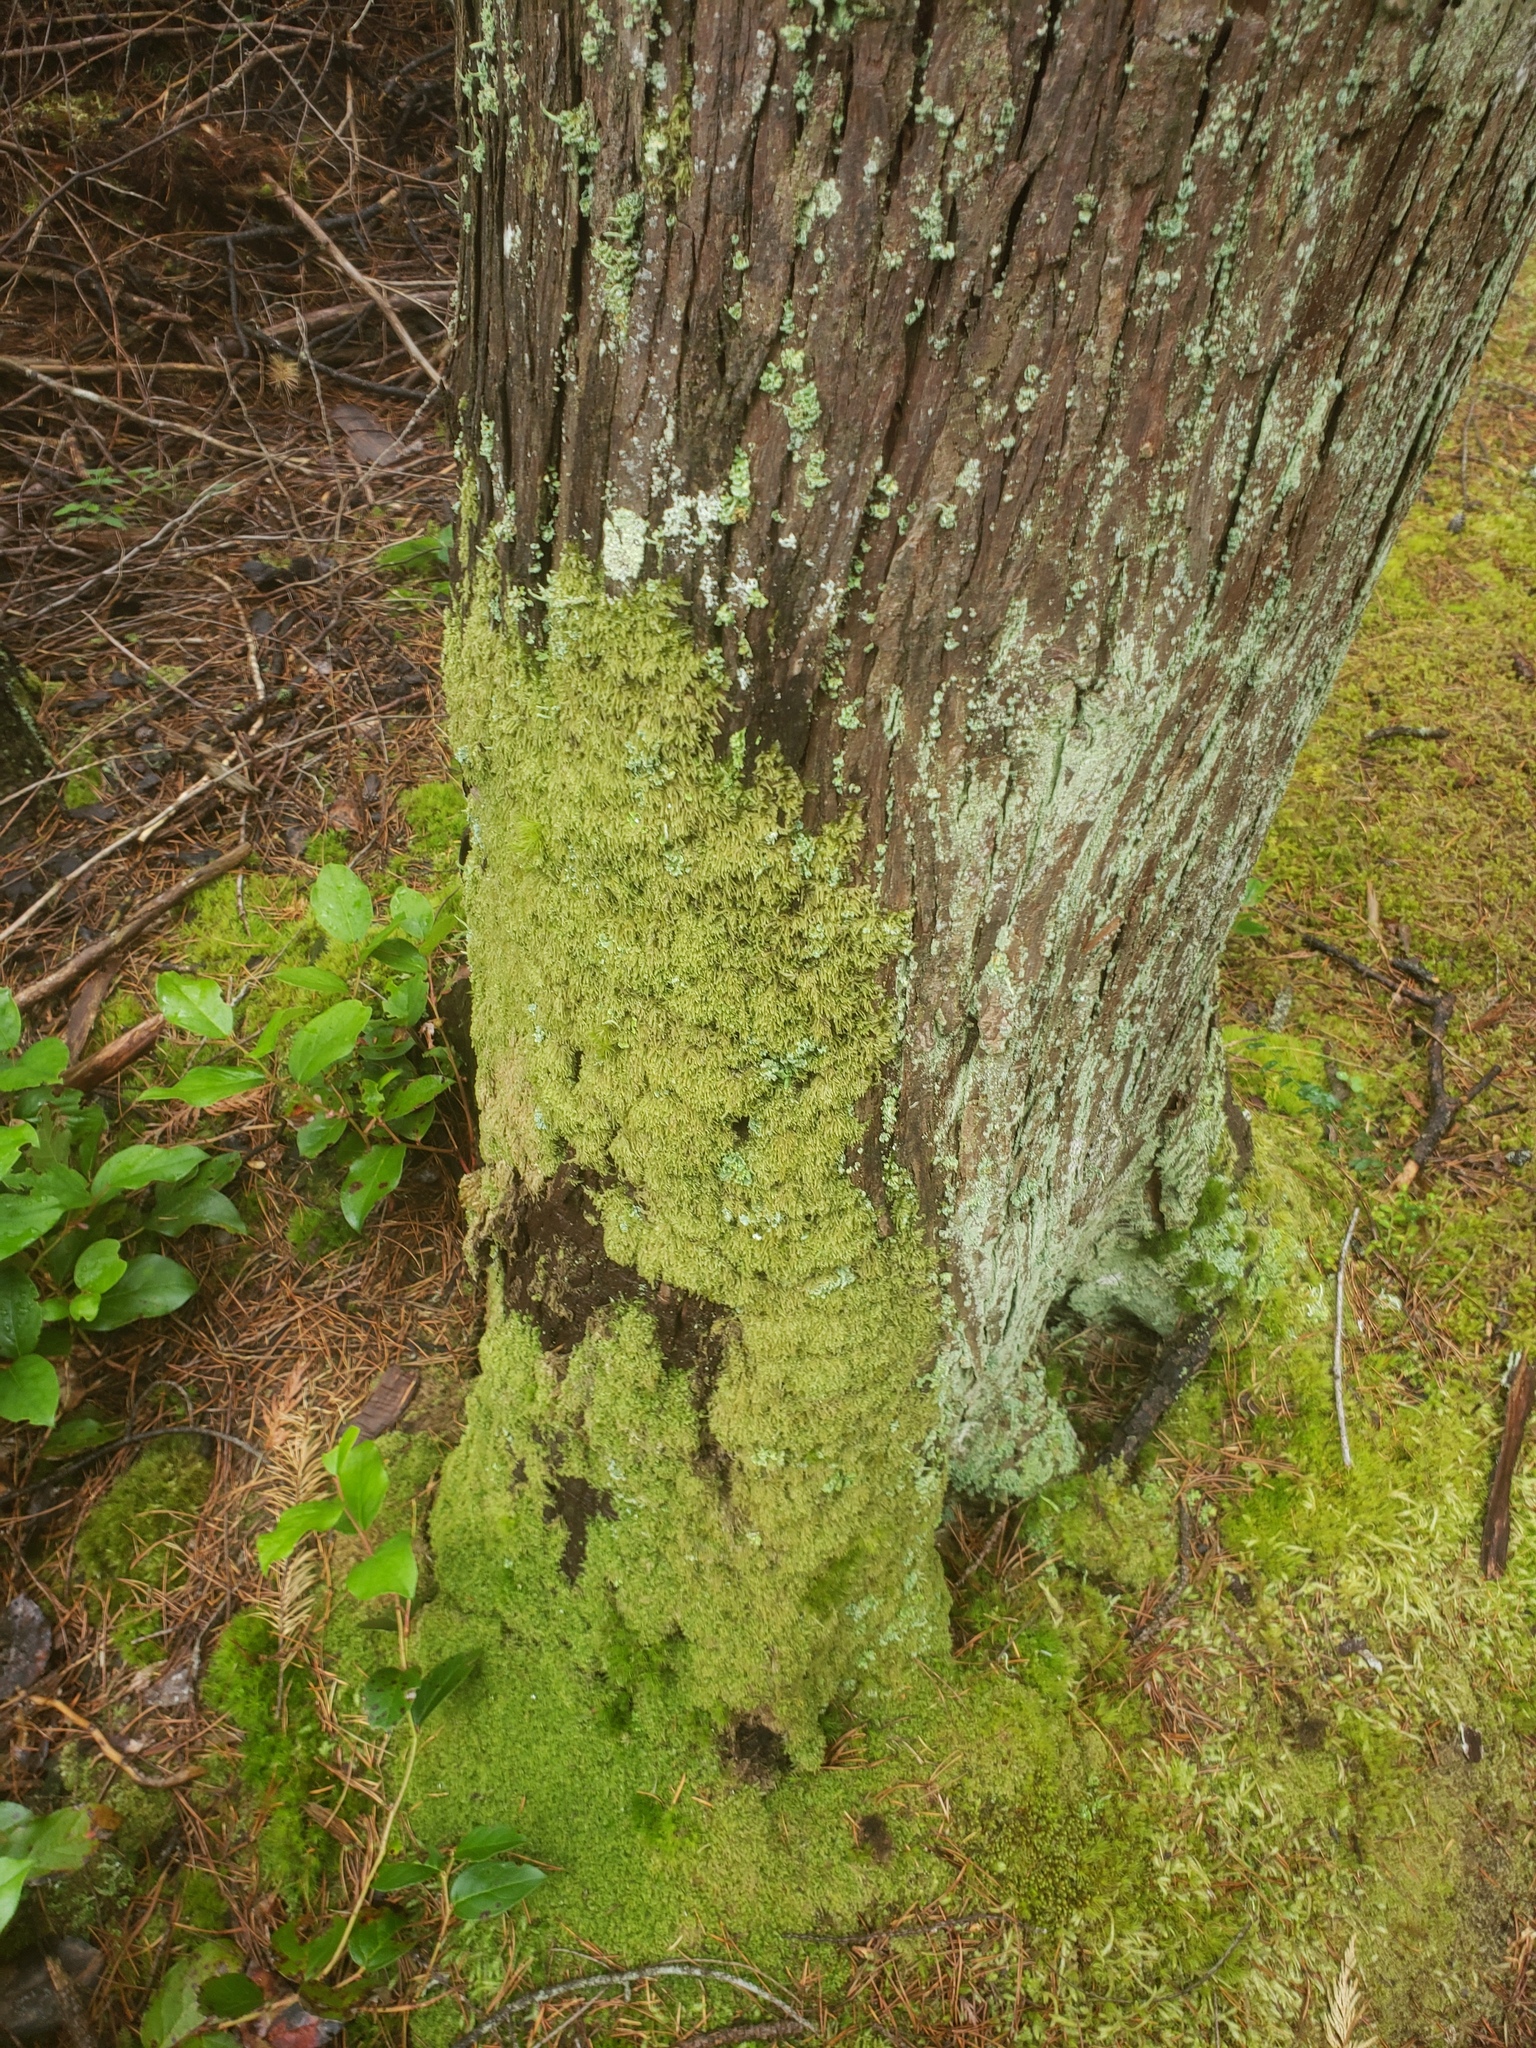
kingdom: Plantae
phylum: Bryophyta
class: Bryopsida
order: Hypnales
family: Pylaisiadelphaceae
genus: Trochophyllohypnum
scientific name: Trochophyllohypnum circinale
